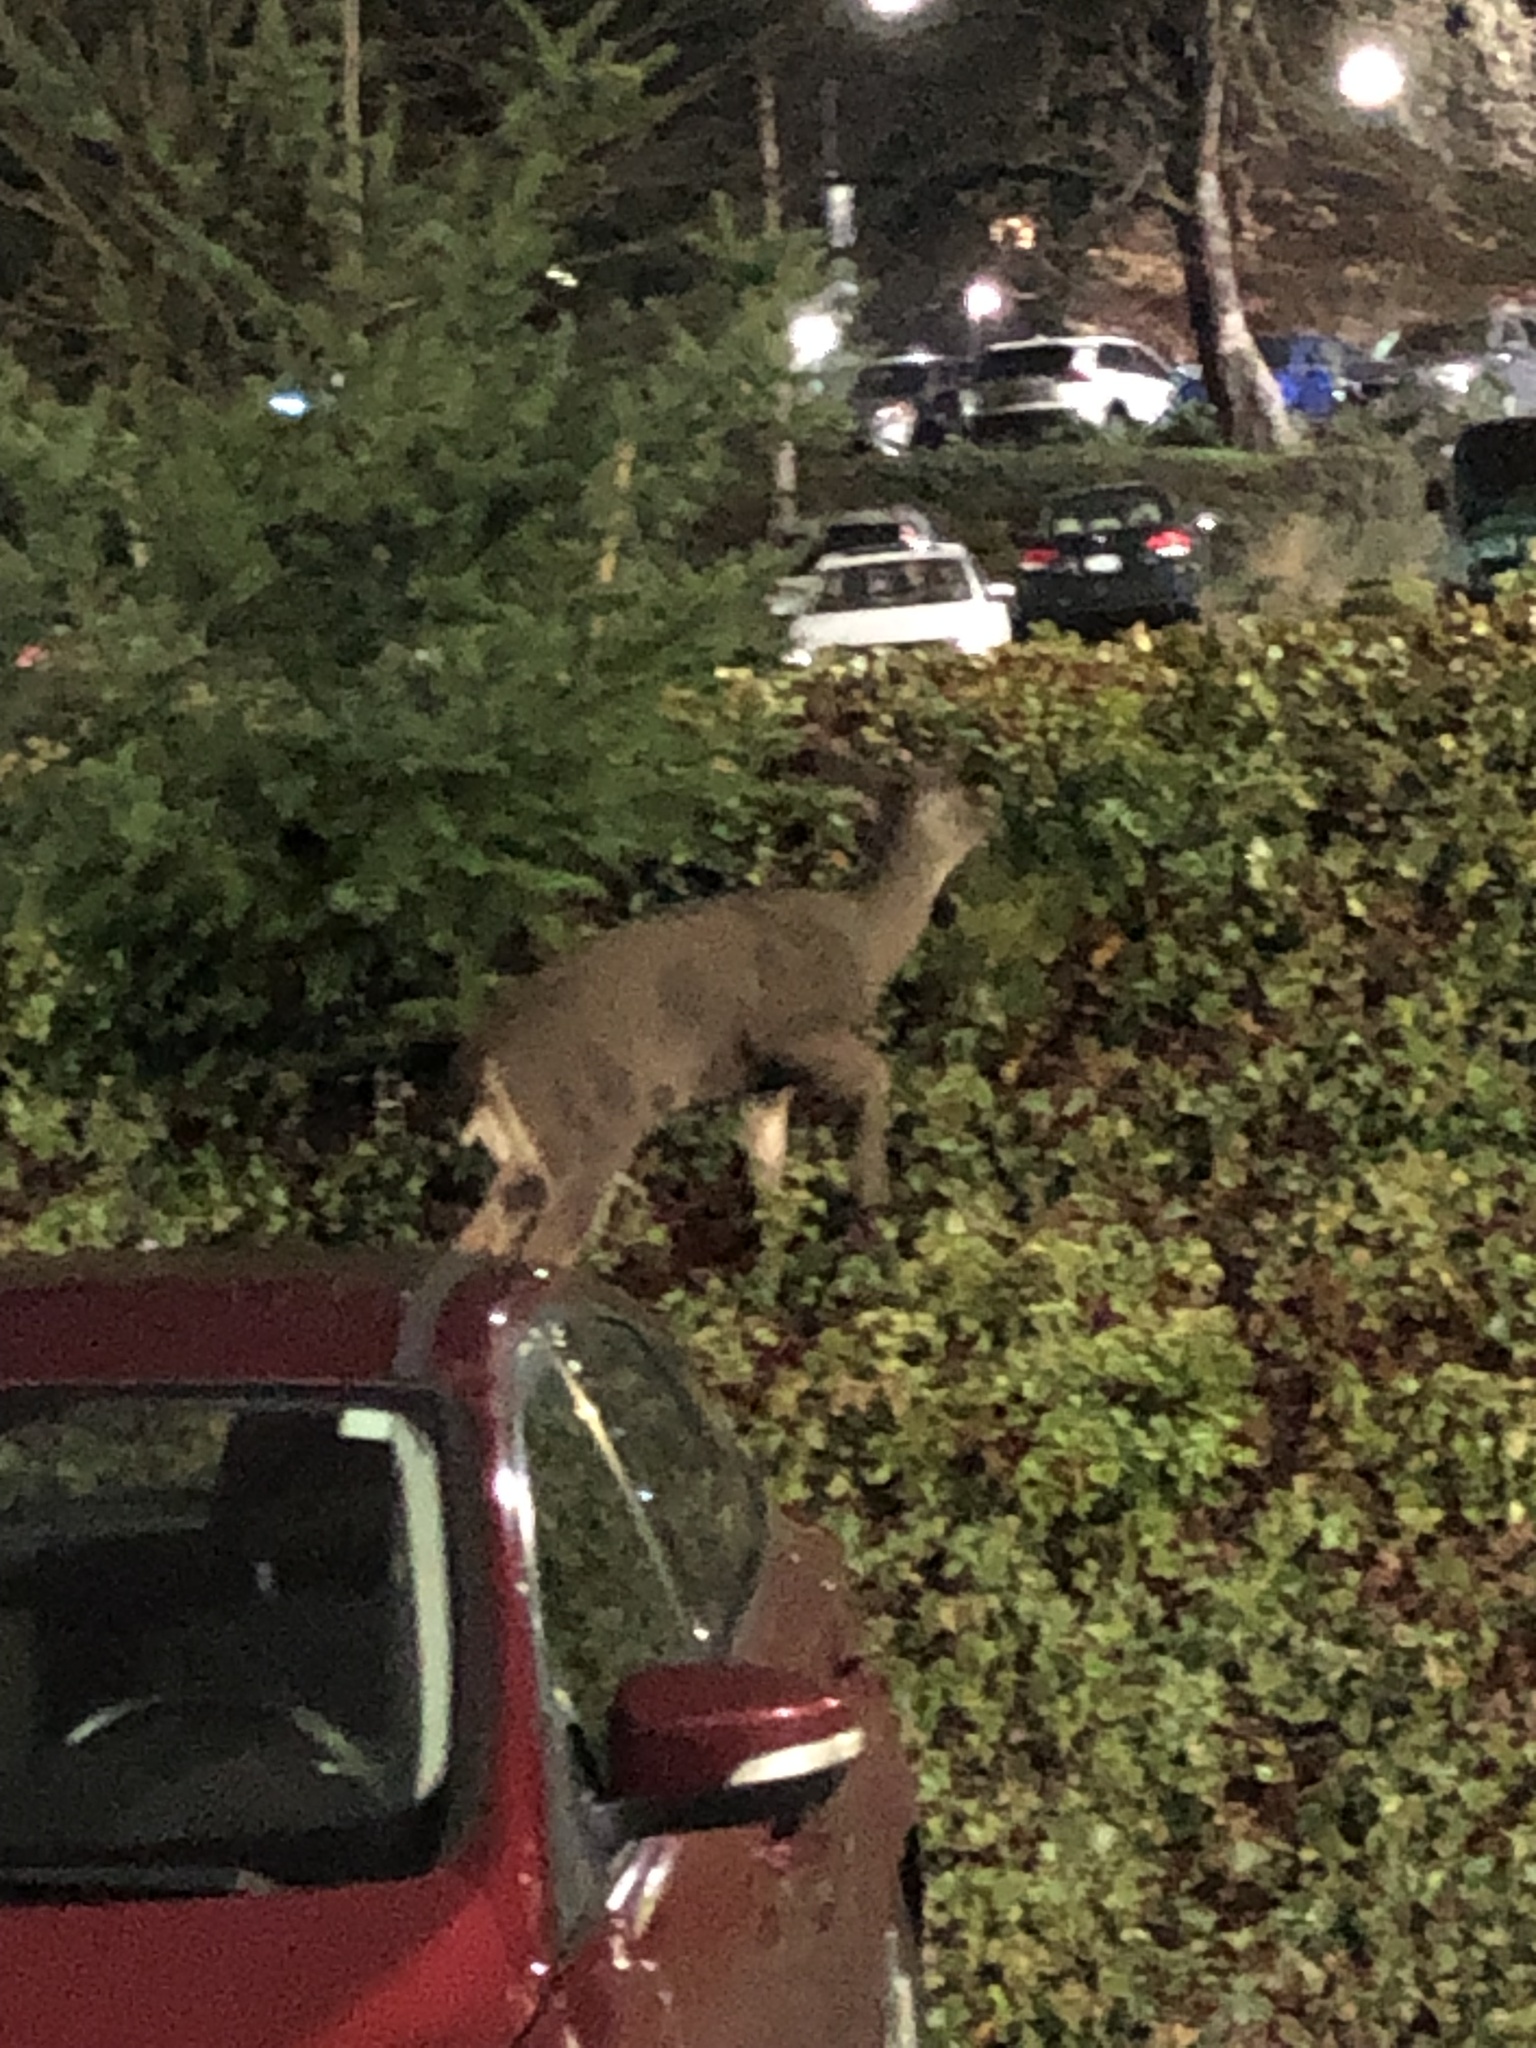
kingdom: Animalia
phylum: Chordata
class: Mammalia
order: Artiodactyla
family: Cervidae
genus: Odocoileus
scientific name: Odocoileus hemionus
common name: Mule deer
